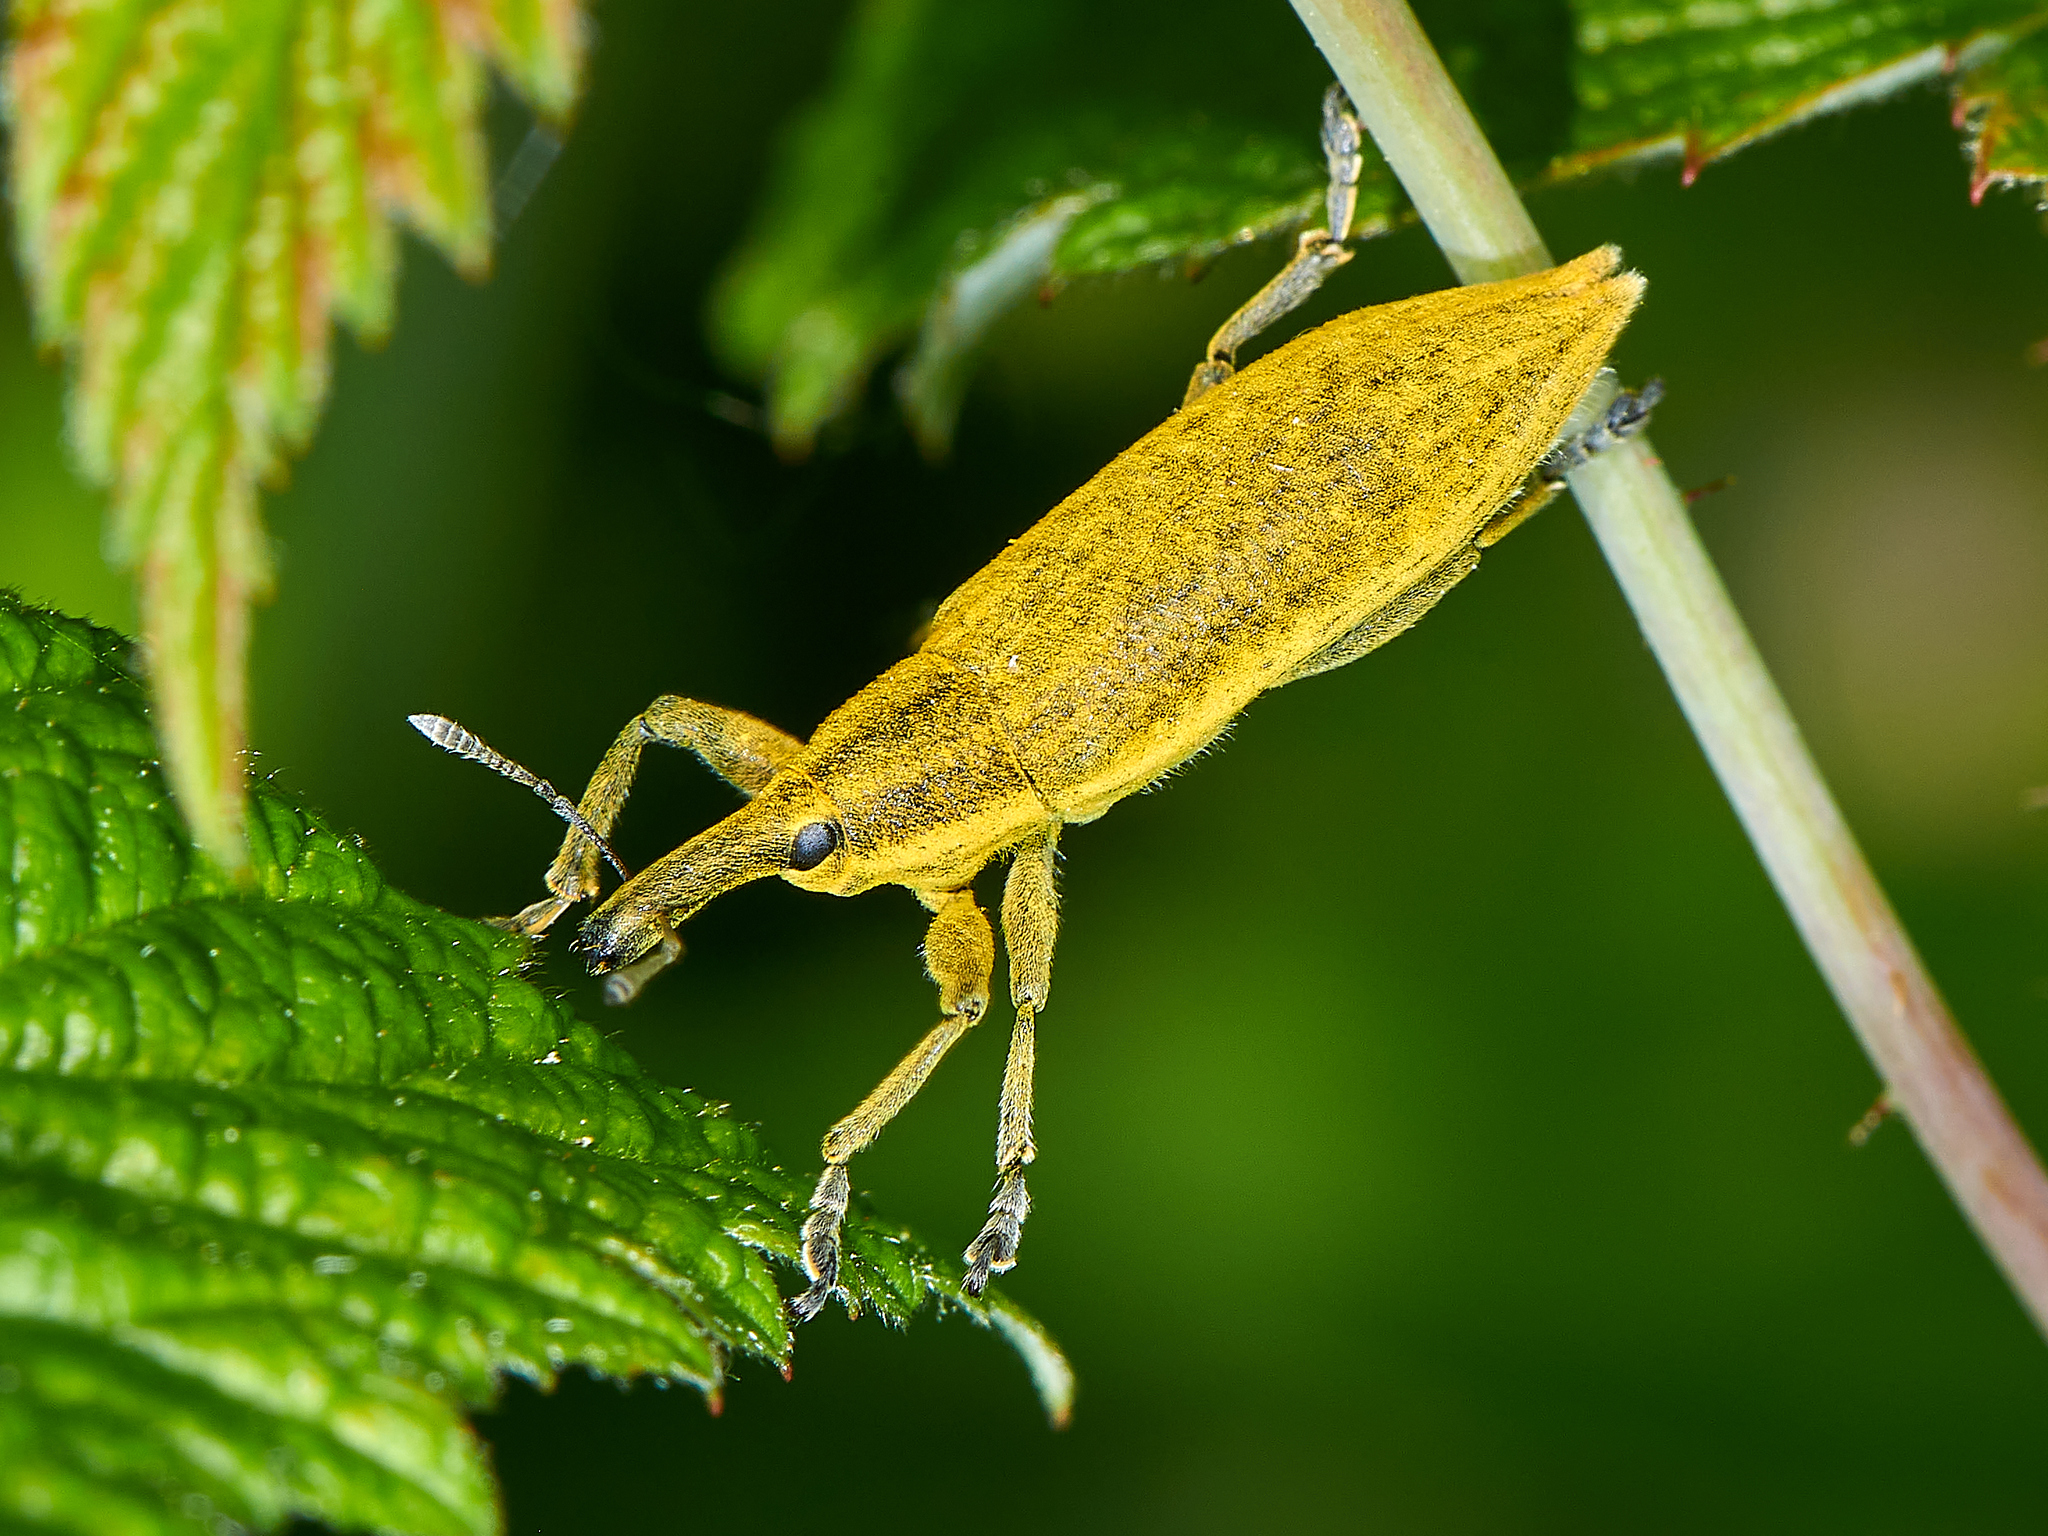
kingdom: Animalia
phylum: Arthropoda
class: Insecta
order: Coleoptera
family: Curculionidae
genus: Lixus
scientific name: Lixus iridis
